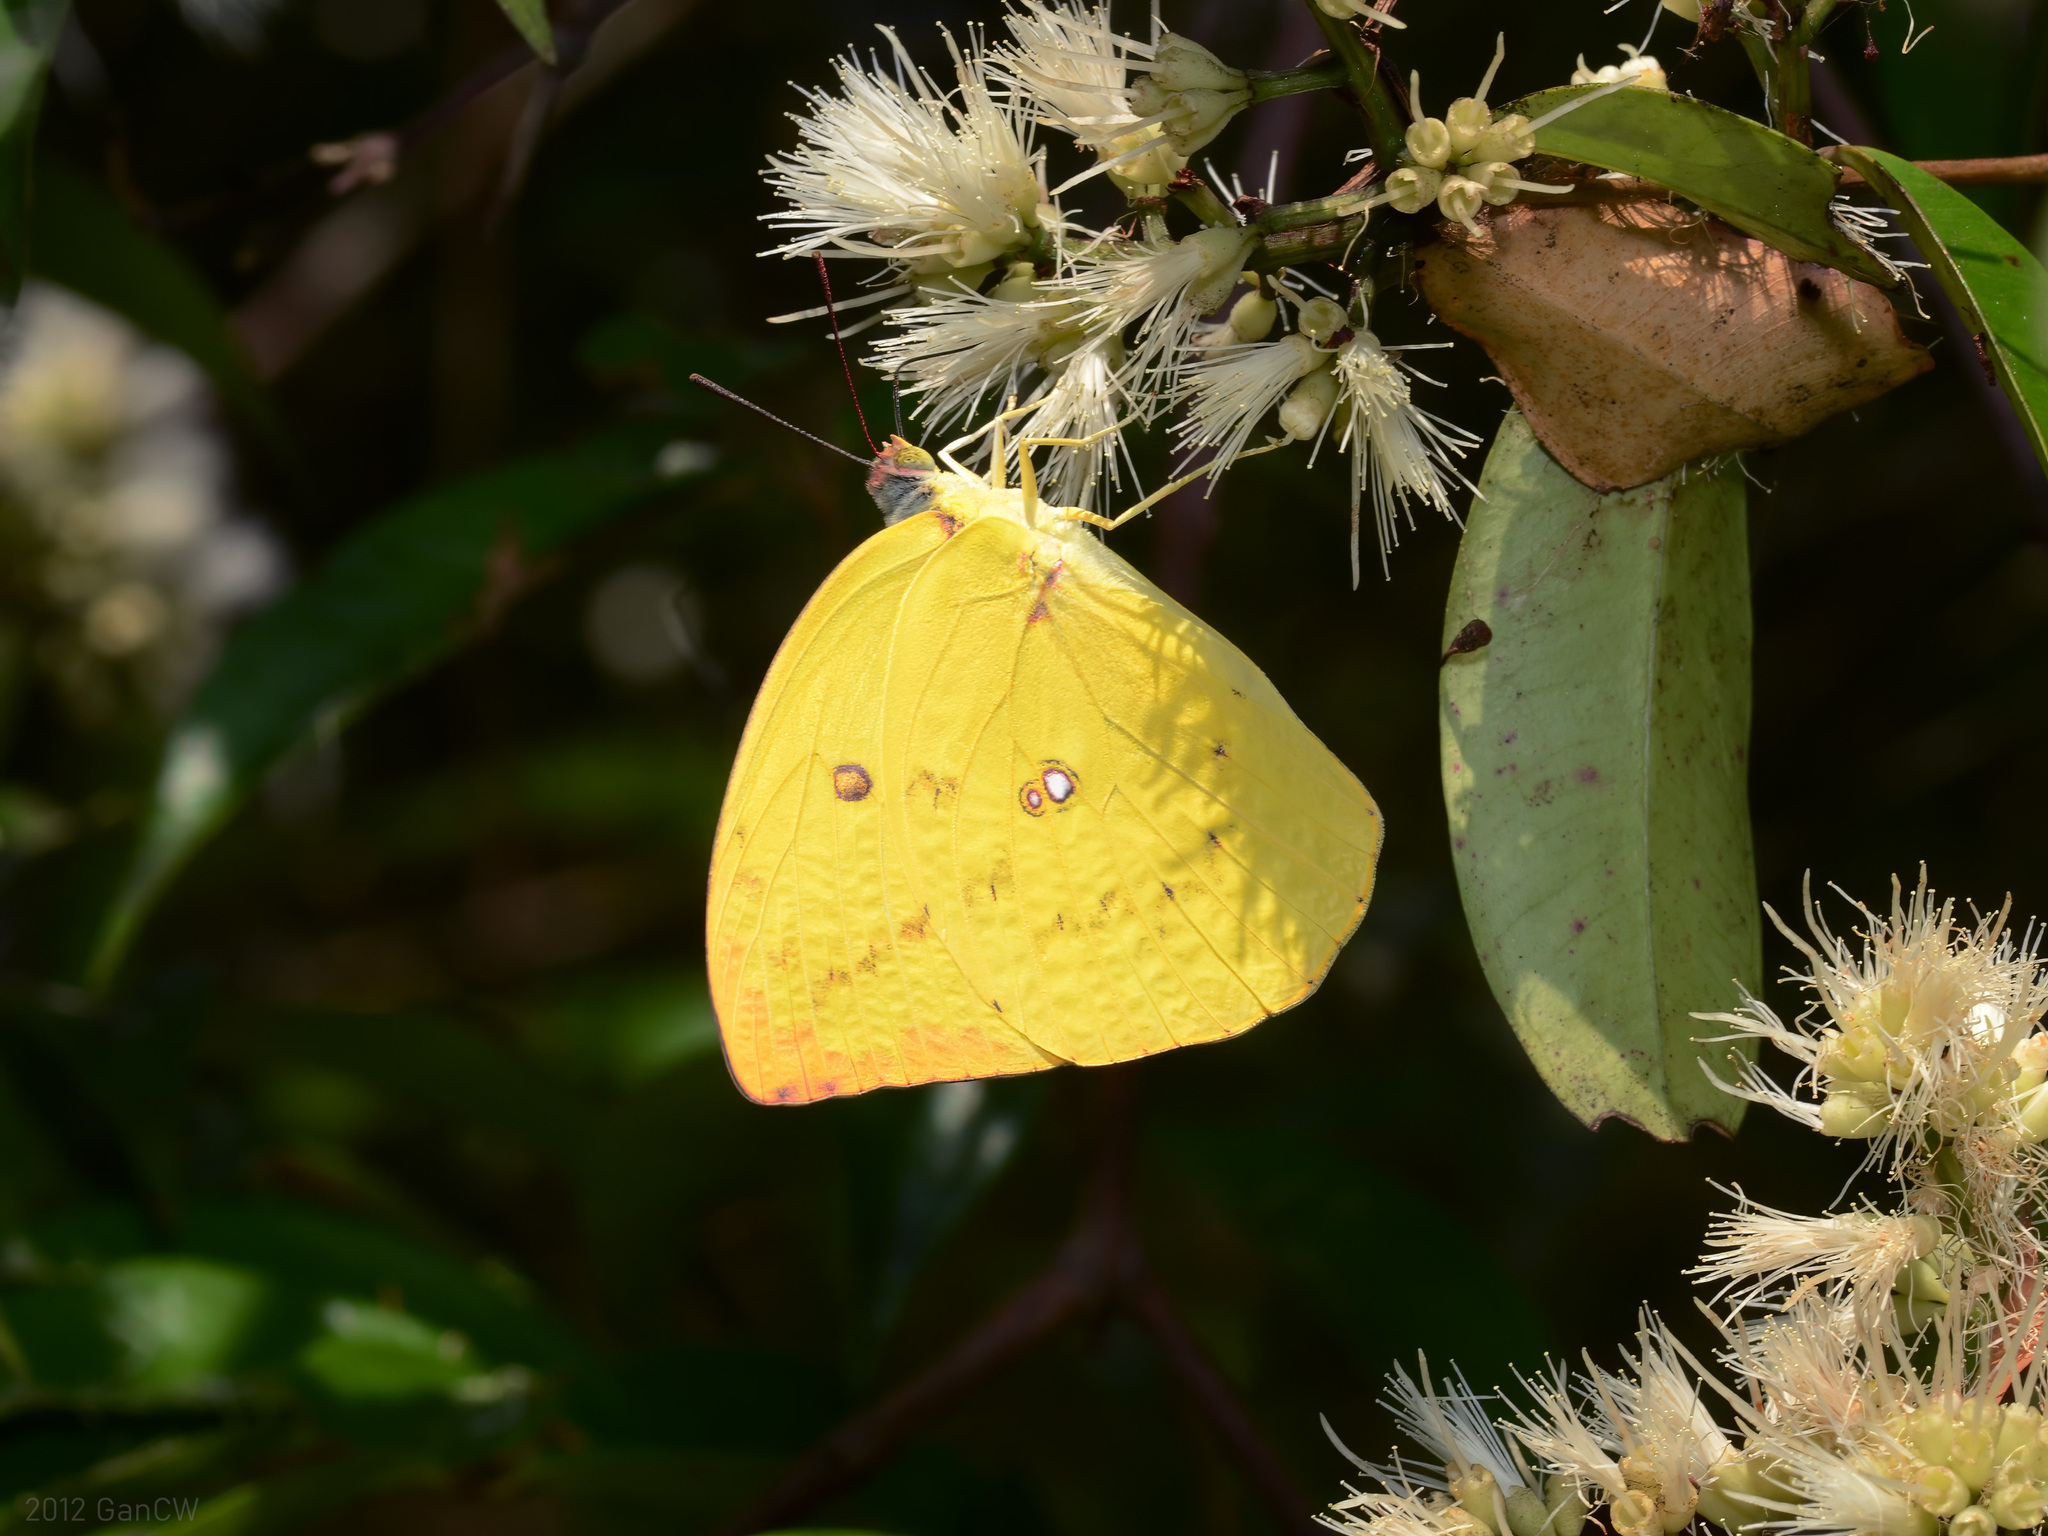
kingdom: Animalia
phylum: Arthropoda
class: Insecta
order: Lepidoptera
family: Pieridae
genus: Catopsilia
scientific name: Catopsilia pomona
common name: Common emigrant
